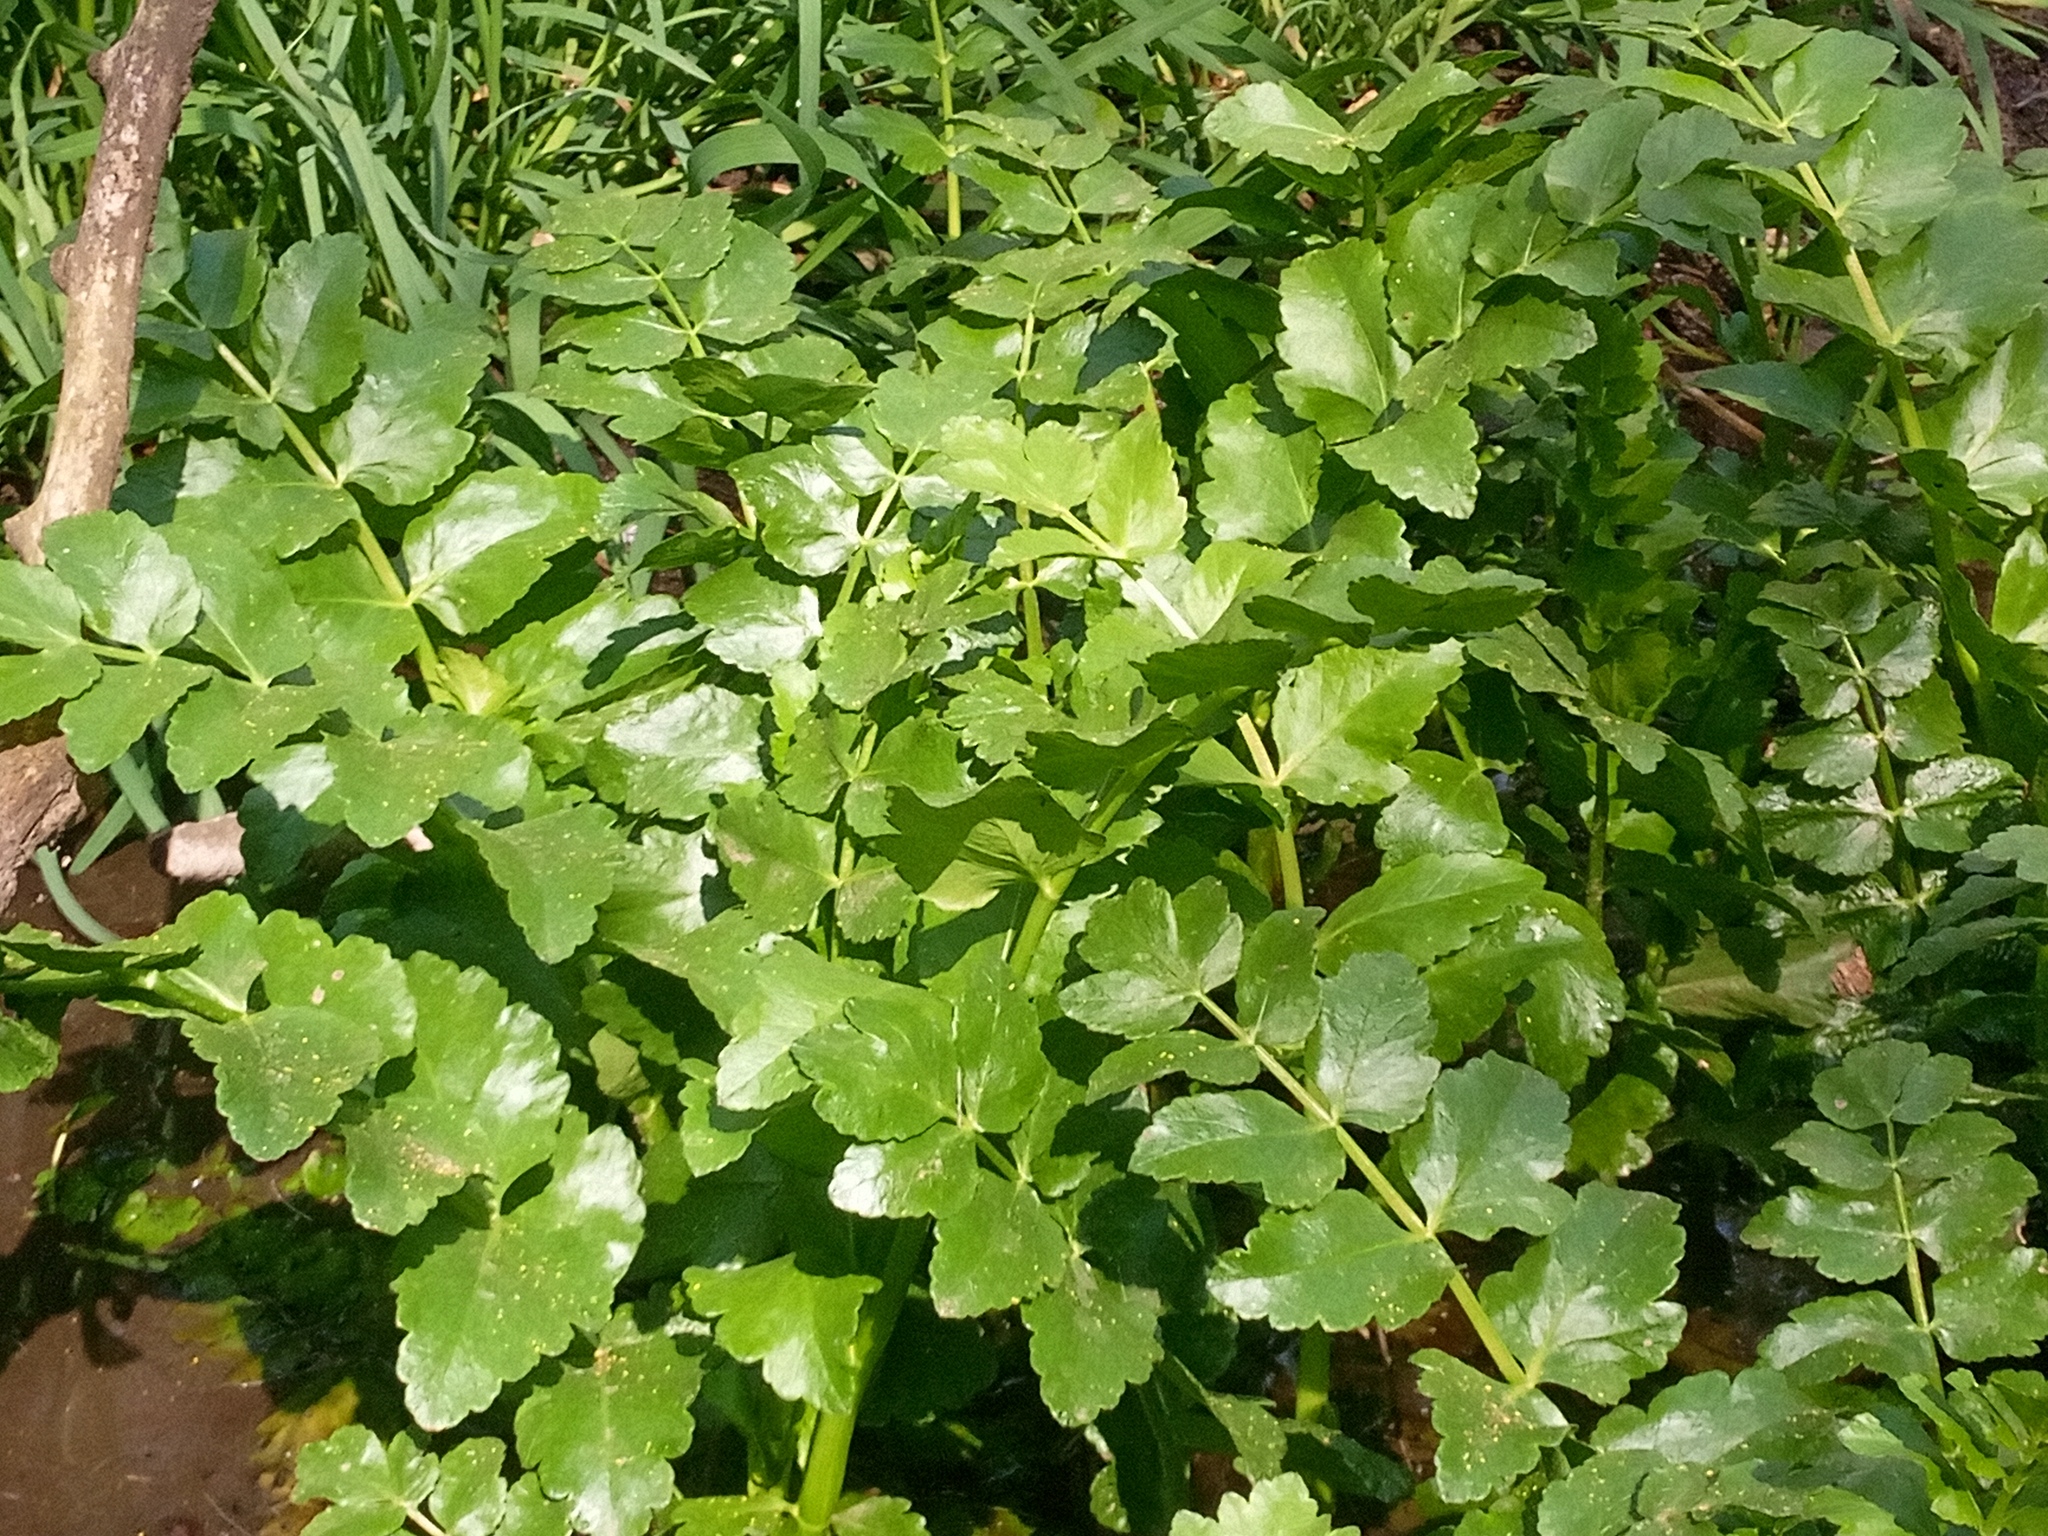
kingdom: Plantae
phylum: Tracheophyta
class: Magnoliopsida
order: Apiales
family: Apiaceae
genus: Berula
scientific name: Berula erecta
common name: Lesser water-parsnip
